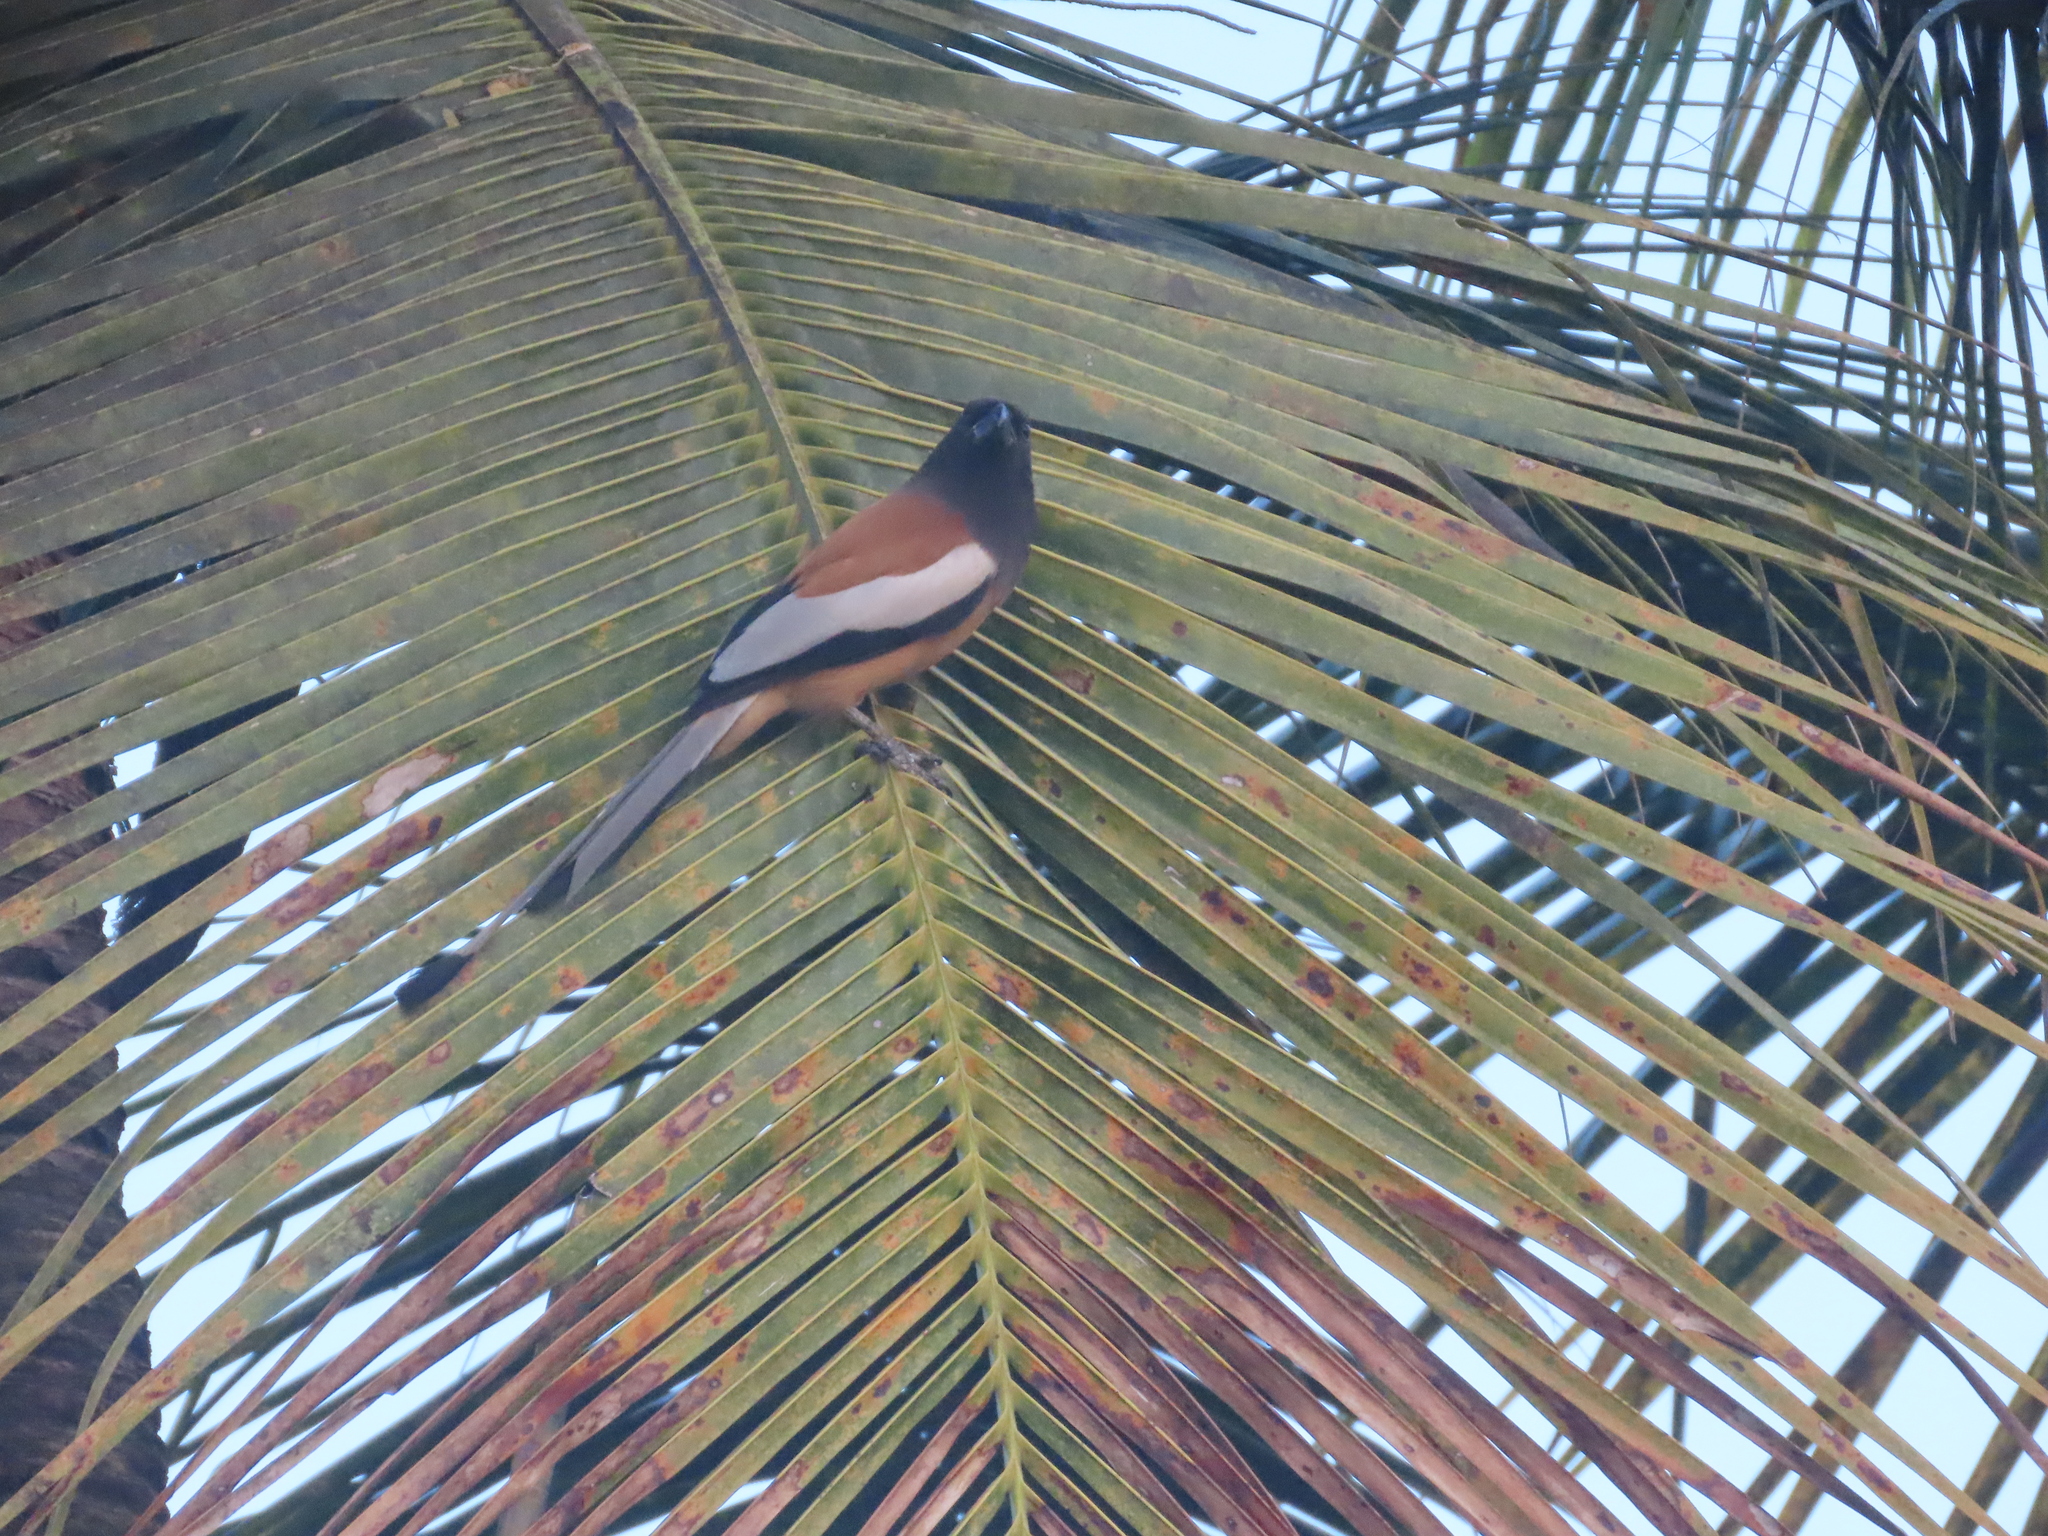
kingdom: Animalia
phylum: Chordata
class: Aves
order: Passeriformes
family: Corvidae
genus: Dendrocitta
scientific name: Dendrocitta vagabunda
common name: Rufous treepie
